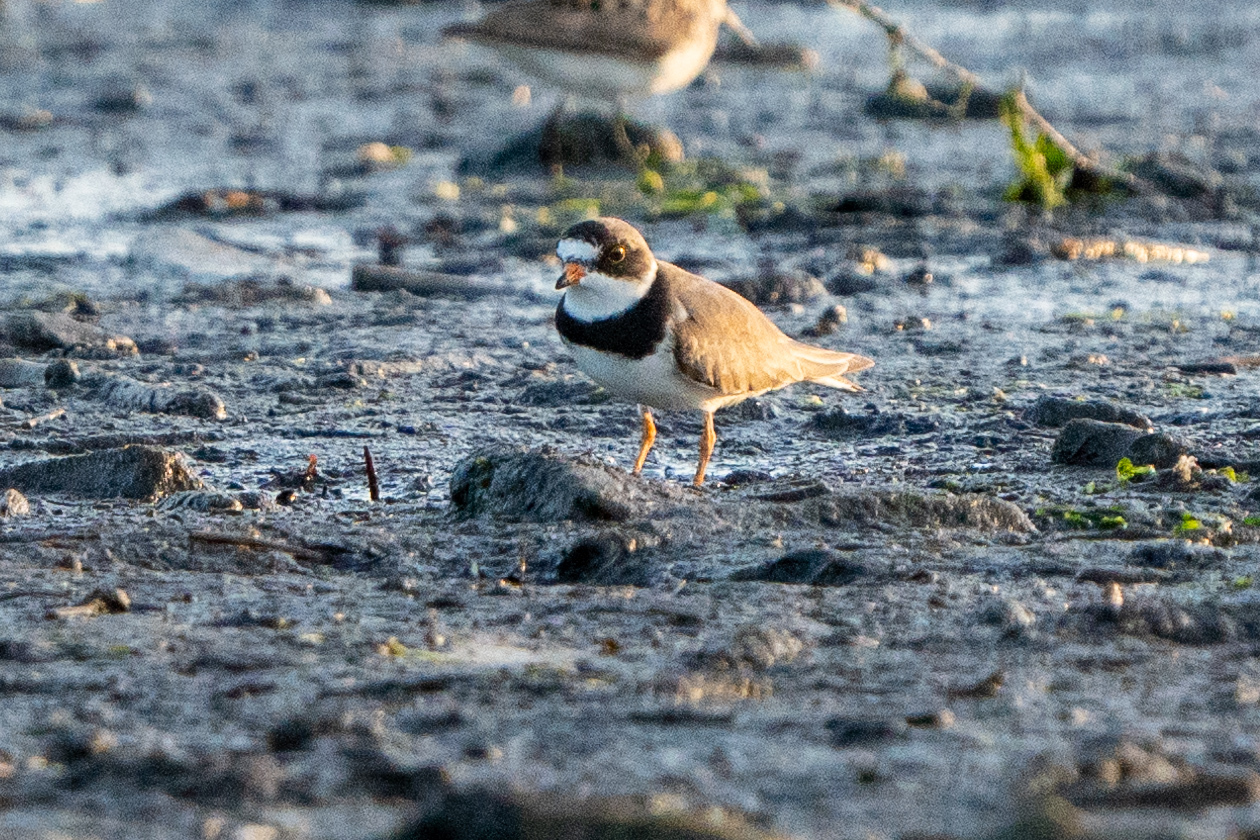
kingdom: Animalia
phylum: Chordata
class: Aves
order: Charadriiformes
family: Charadriidae
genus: Charadrius
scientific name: Charadrius semipalmatus
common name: Semipalmated plover
